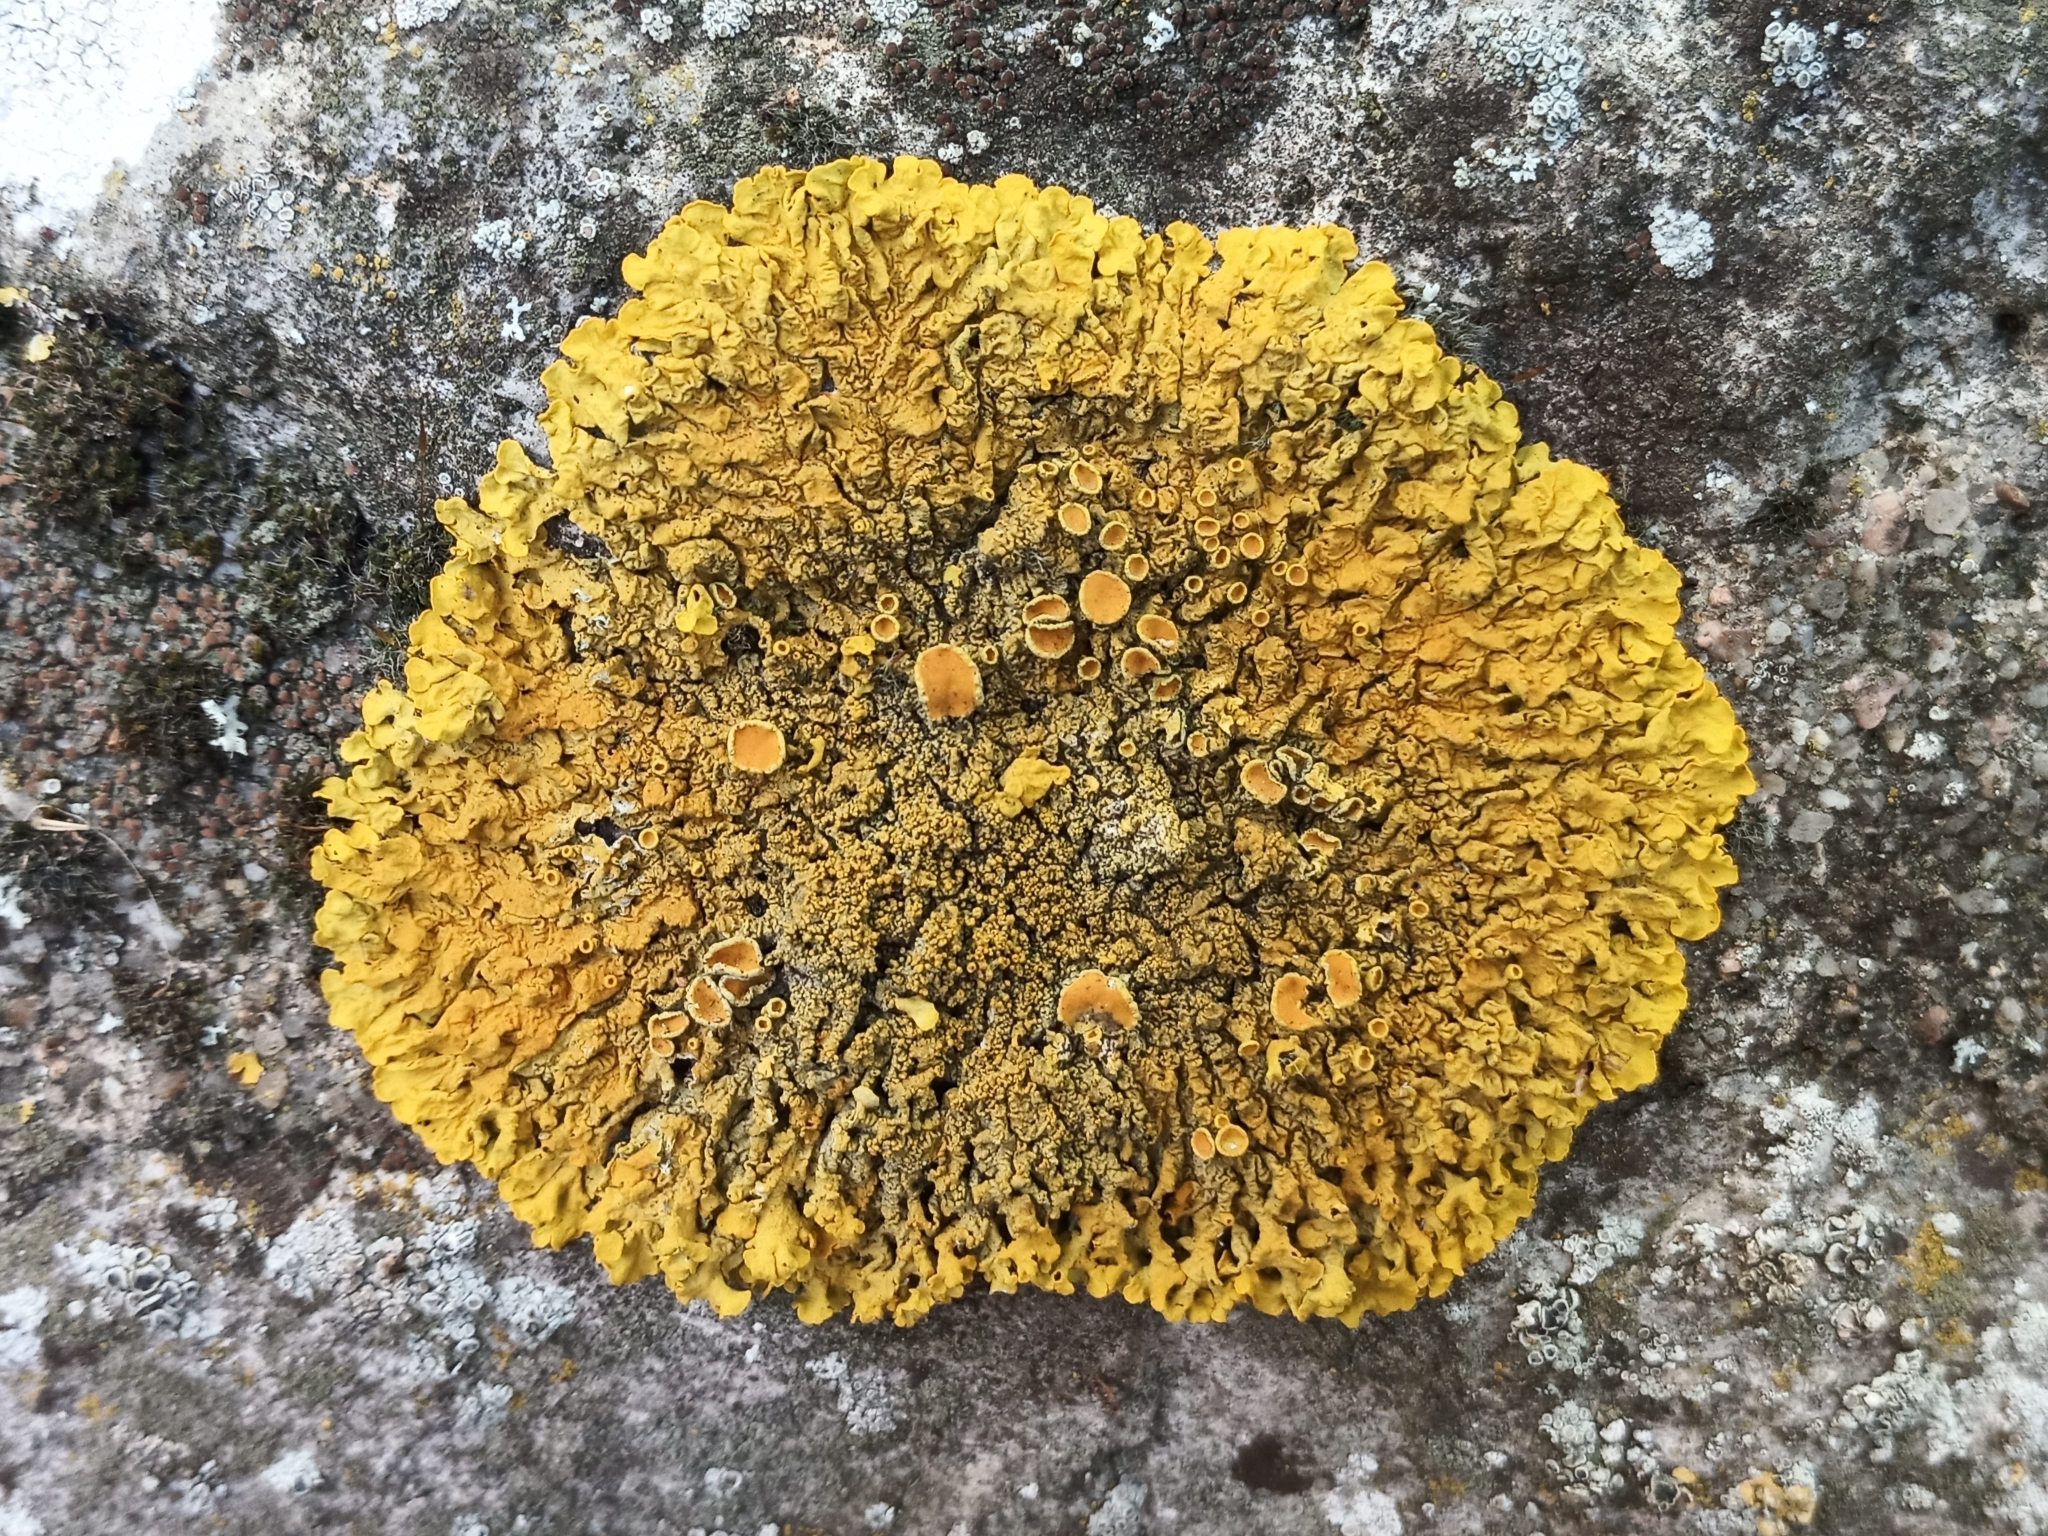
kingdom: Fungi
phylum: Ascomycota
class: Lecanoromycetes
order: Teloschistales
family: Teloschistaceae
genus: Xanthoria
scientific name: Xanthoria calcicola
